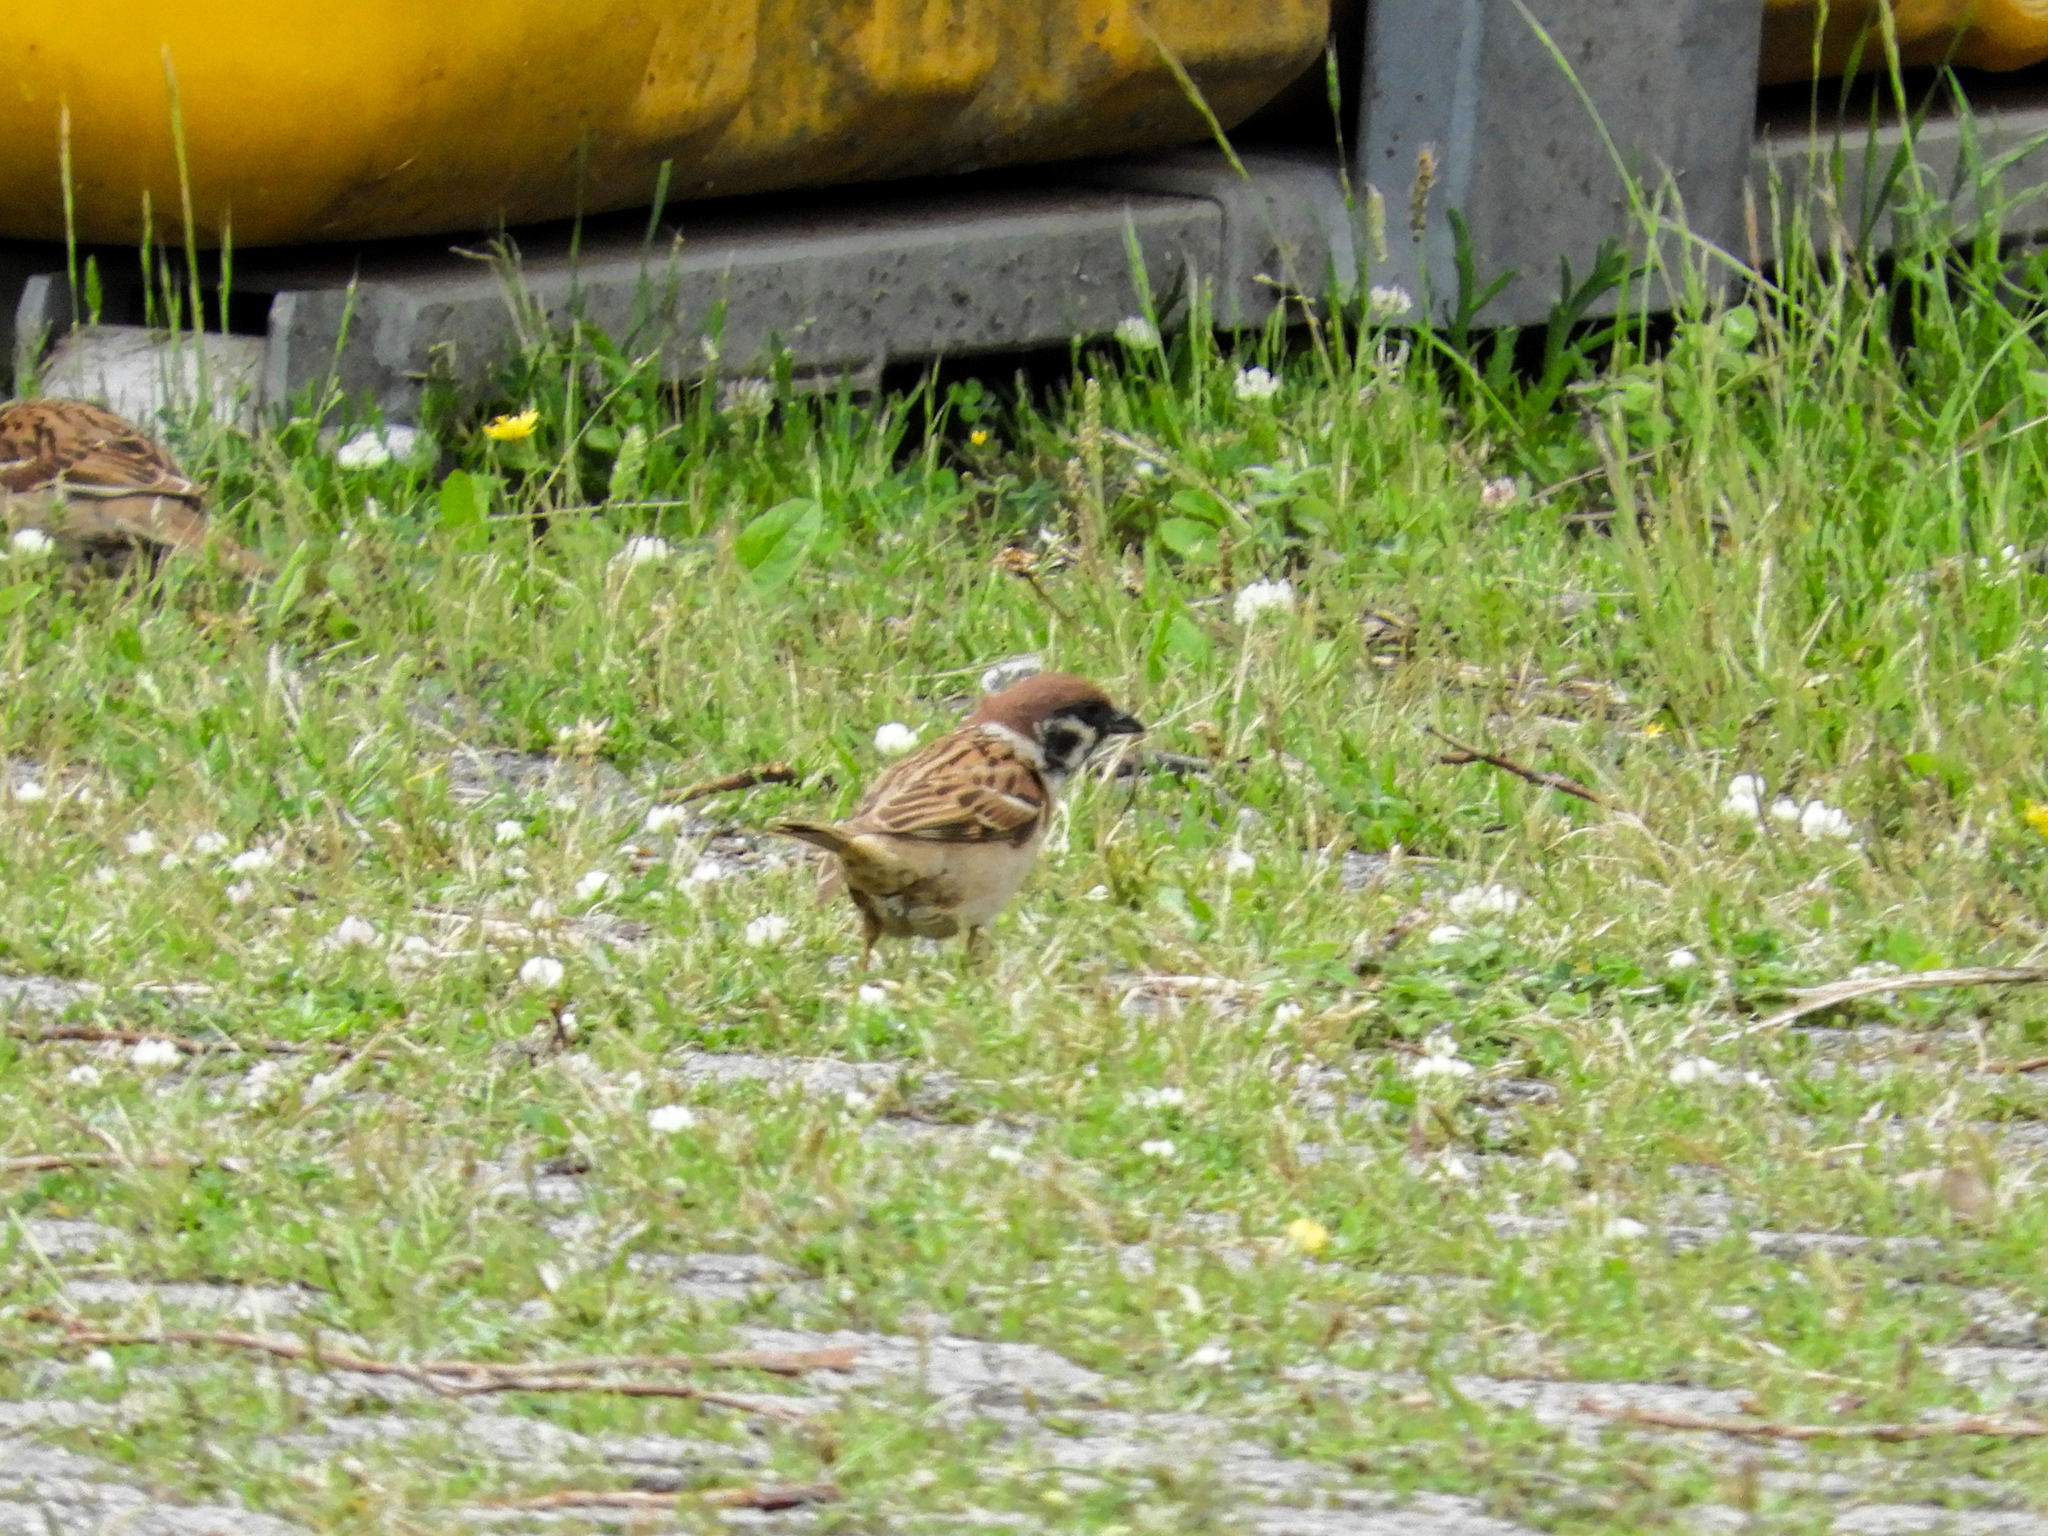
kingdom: Animalia
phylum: Chordata
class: Aves
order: Passeriformes
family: Passeridae
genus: Passer
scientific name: Passer montanus
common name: Eurasian tree sparrow
